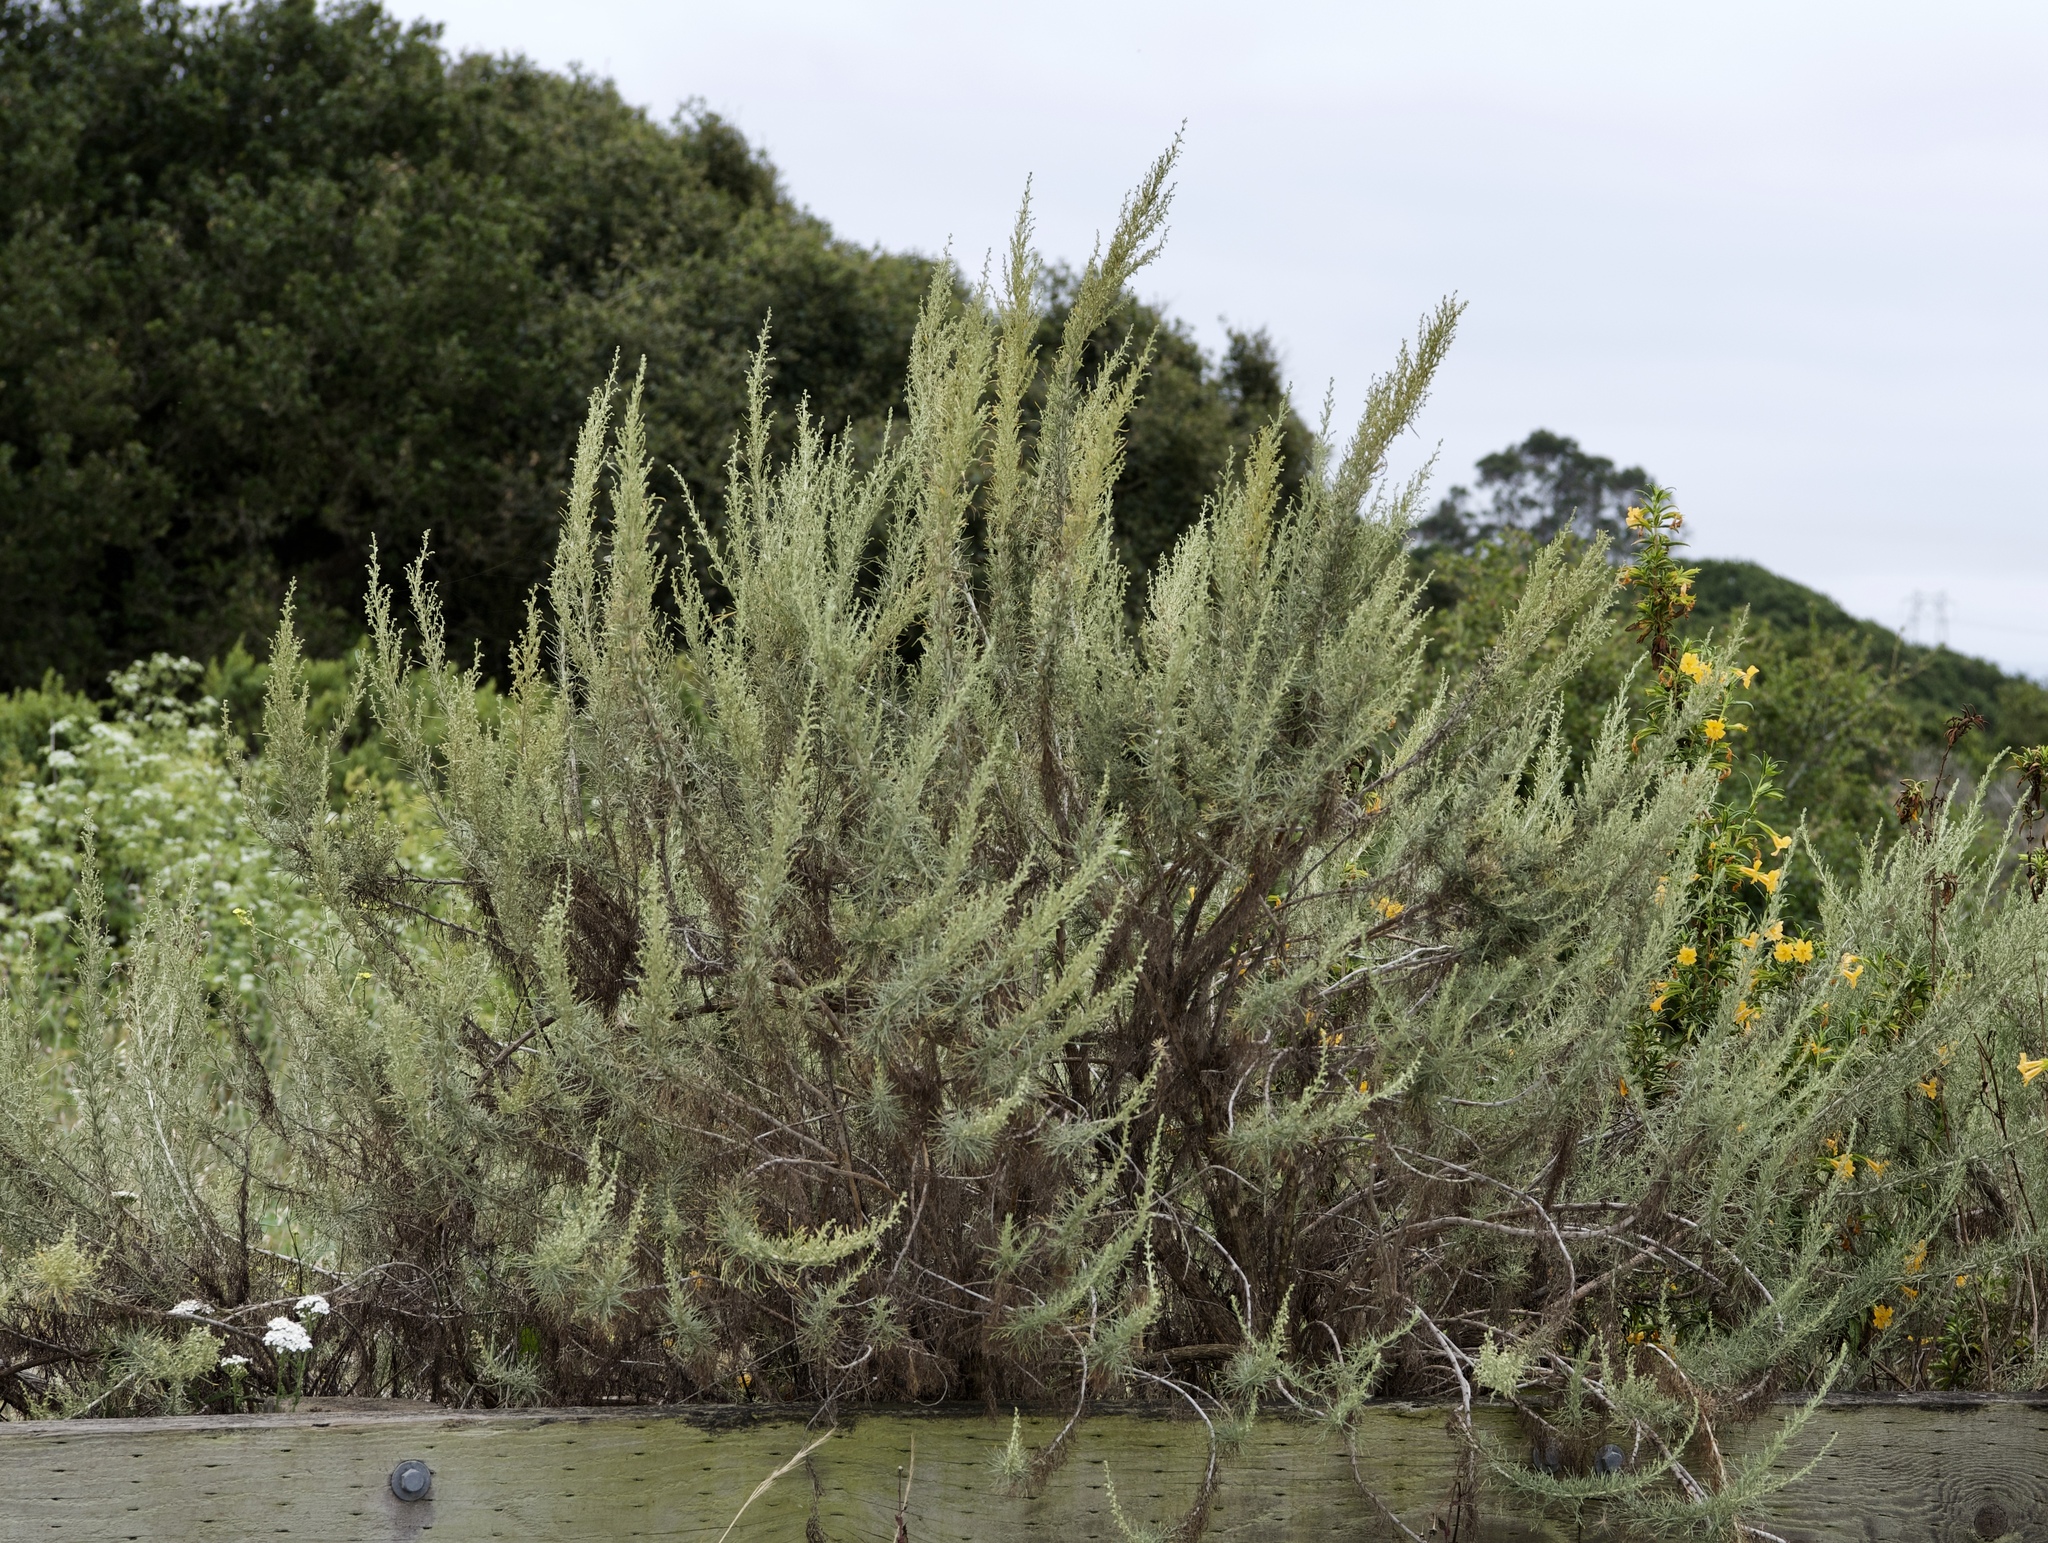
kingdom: Plantae
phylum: Tracheophyta
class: Magnoliopsida
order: Asterales
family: Asteraceae
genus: Artemisia
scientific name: Artemisia californica
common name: California sagebrush
